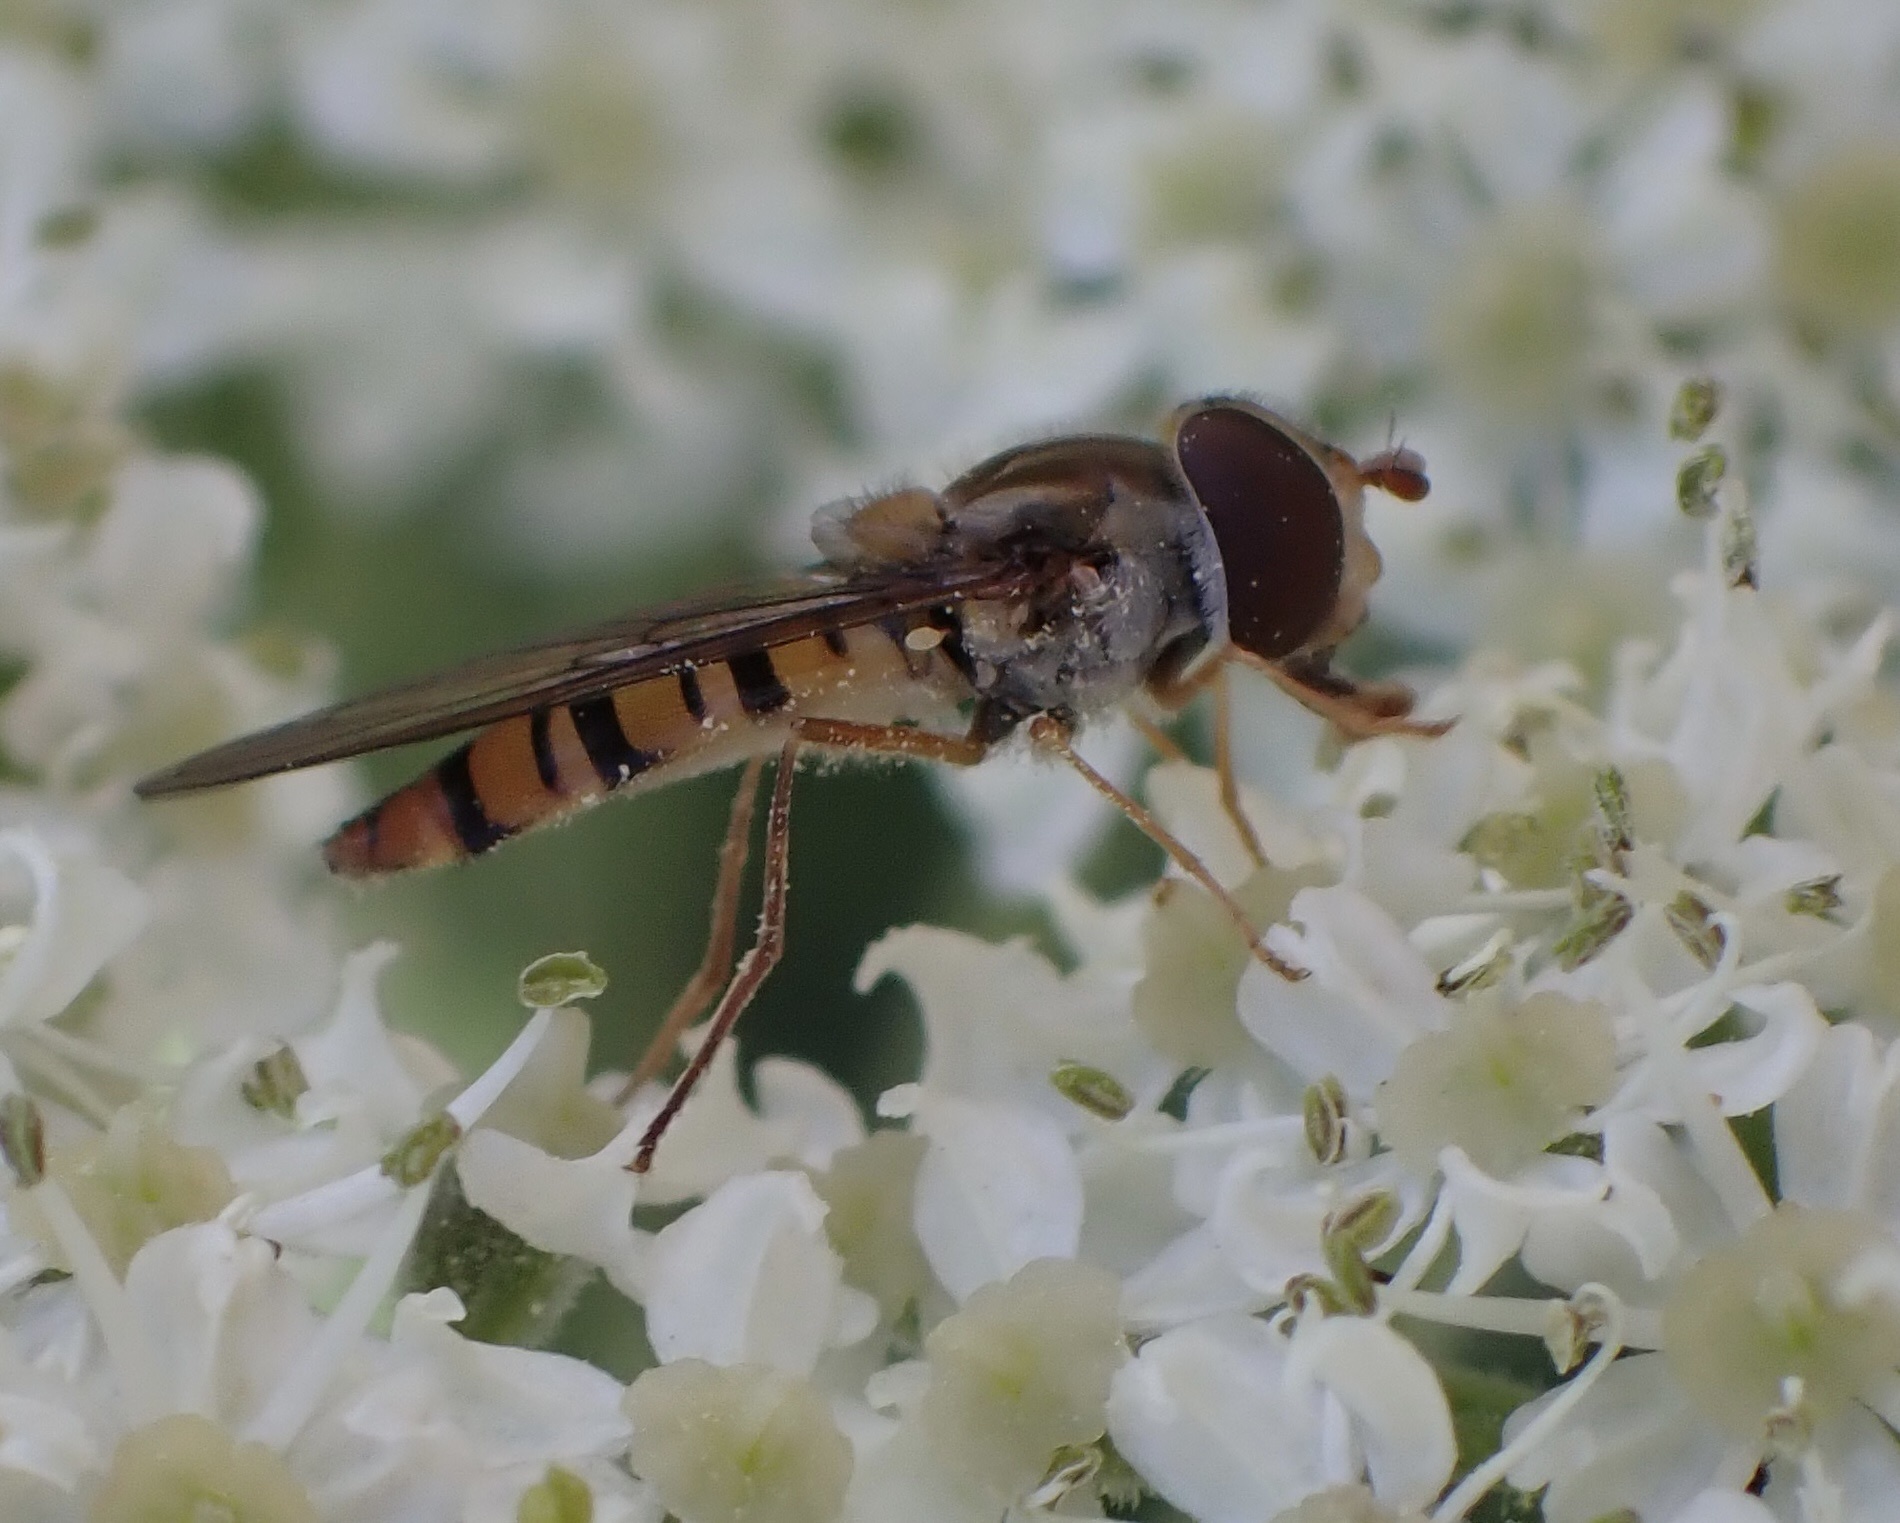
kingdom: Animalia
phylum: Arthropoda
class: Insecta
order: Diptera
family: Syrphidae
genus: Episyrphus
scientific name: Episyrphus balteatus
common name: Marmalade hoverfly
